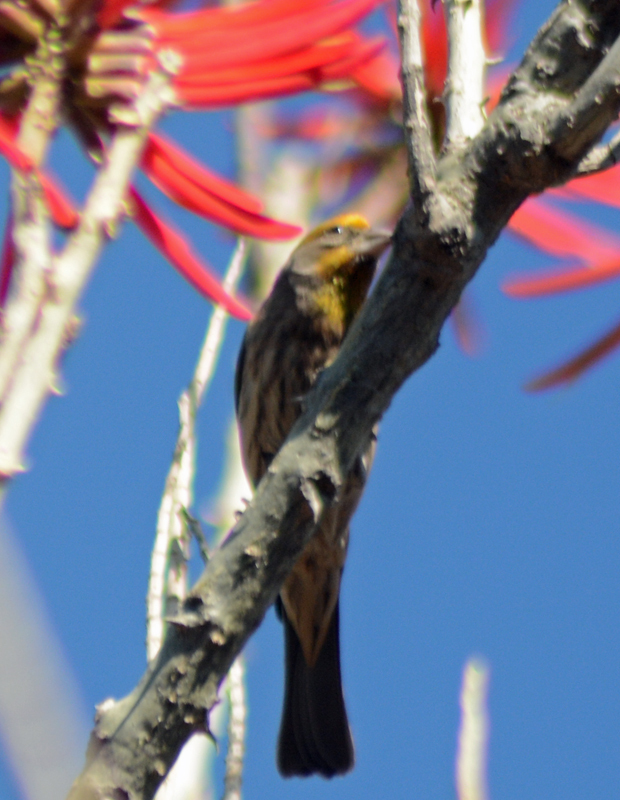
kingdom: Animalia
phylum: Chordata
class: Aves
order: Passeriformes
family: Fringillidae
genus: Haemorhous
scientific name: Haemorhous mexicanus
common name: House finch
